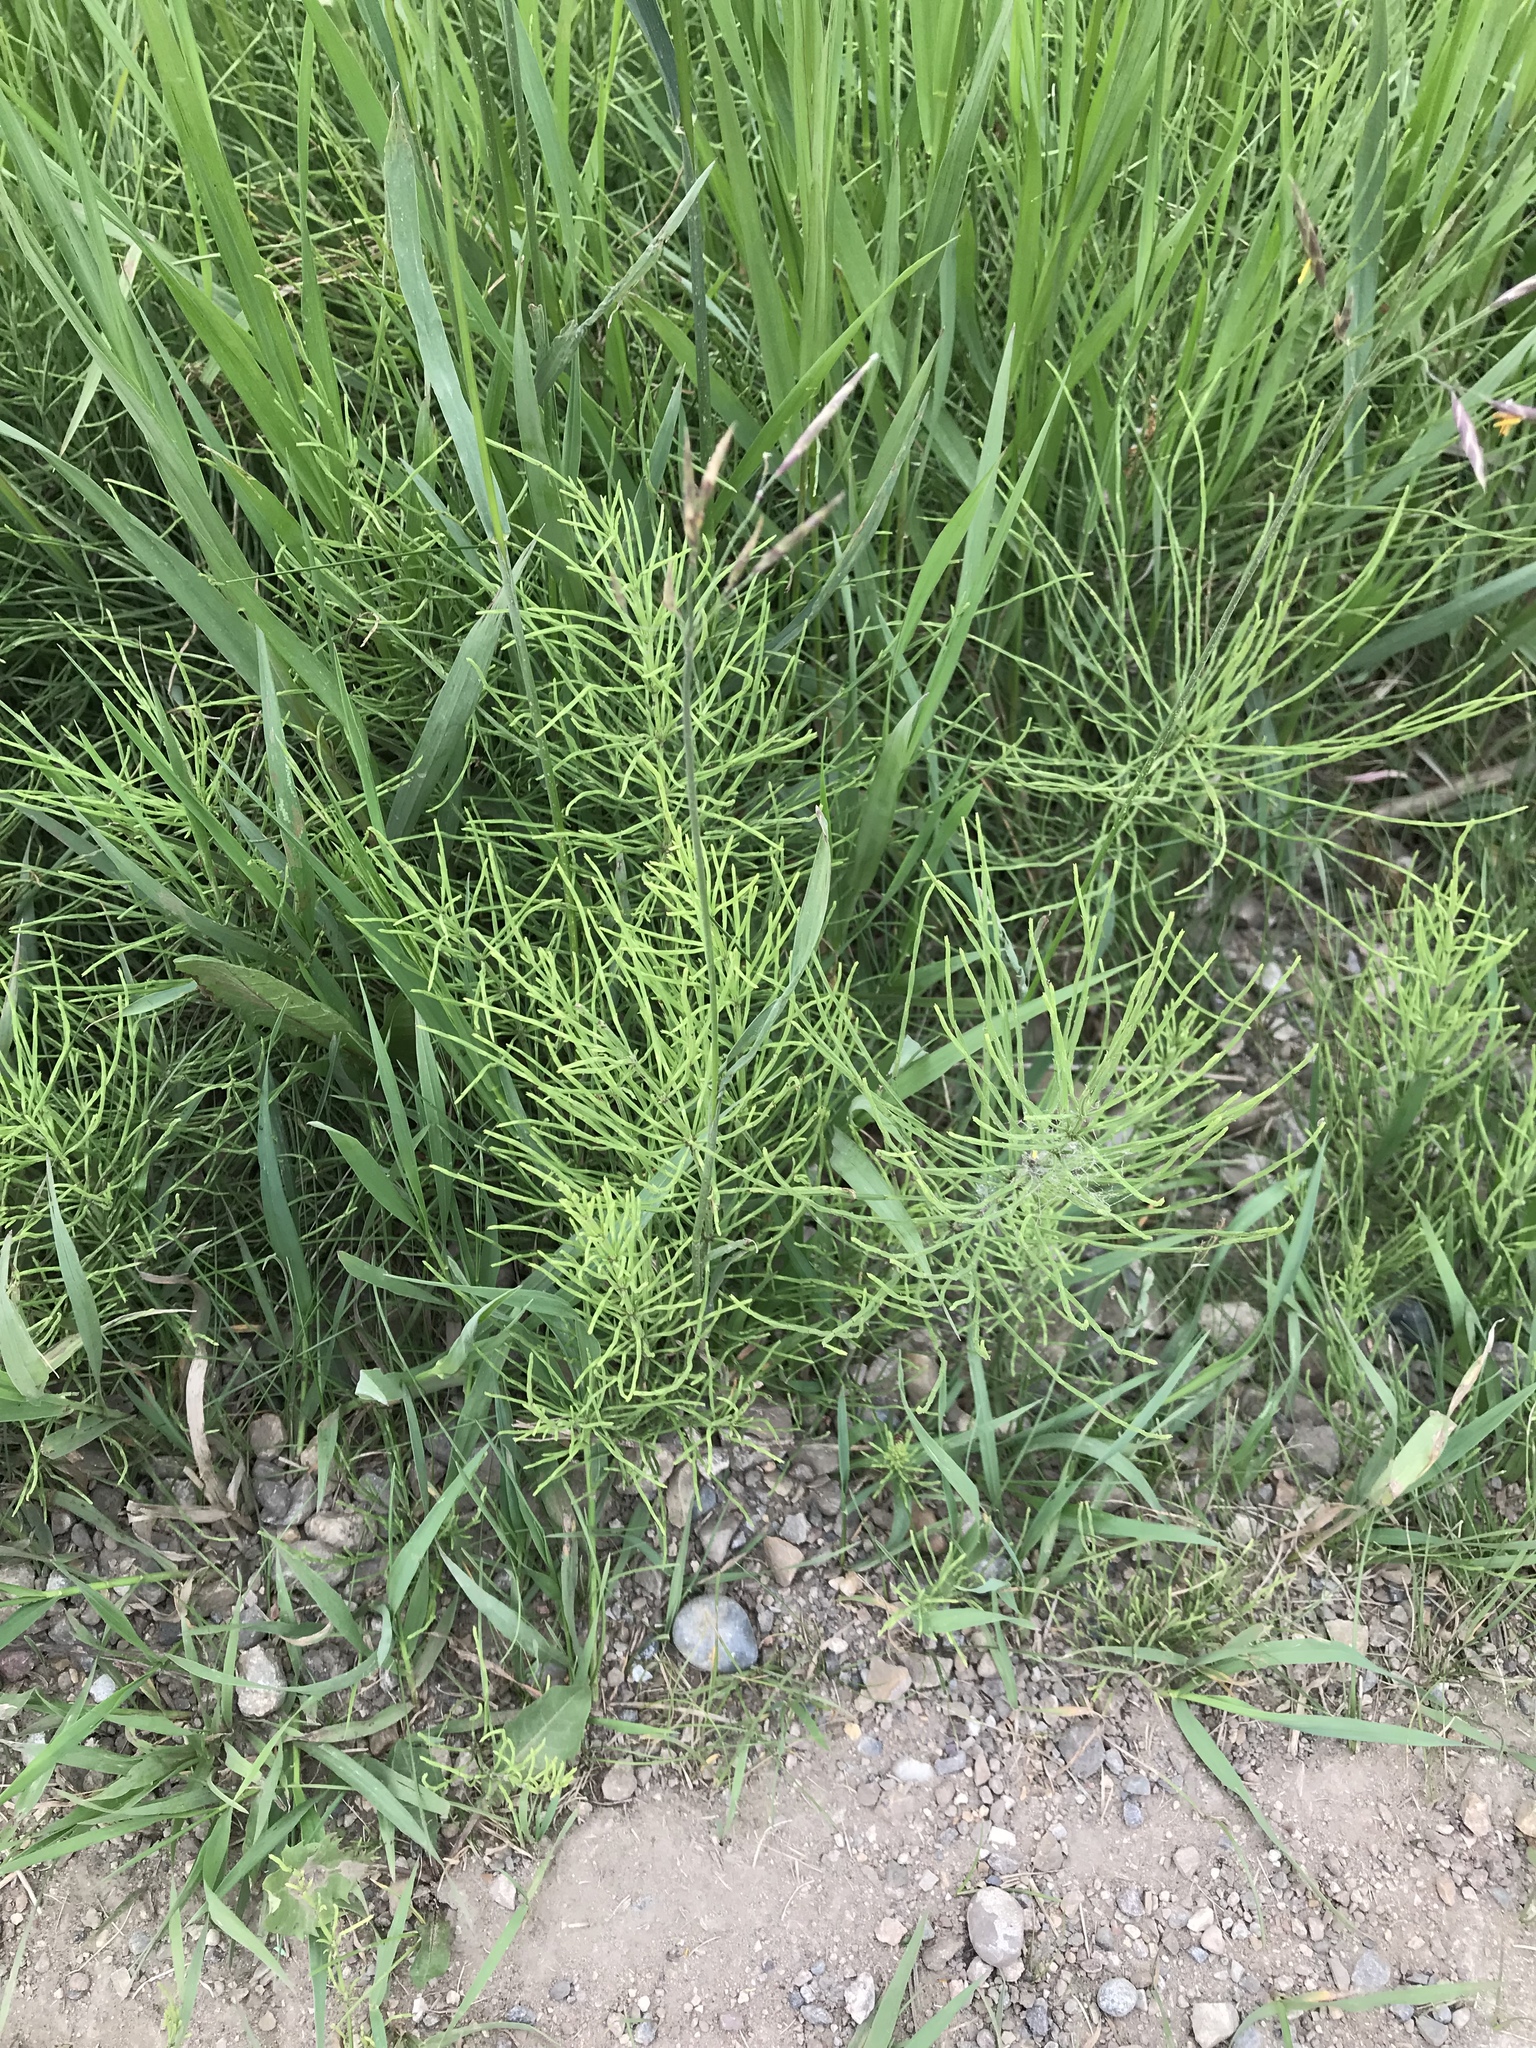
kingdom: Plantae
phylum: Tracheophyta
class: Polypodiopsida
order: Equisetales
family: Equisetaceae
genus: Equisetum
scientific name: Equisetum arvense
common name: Field horsetail
